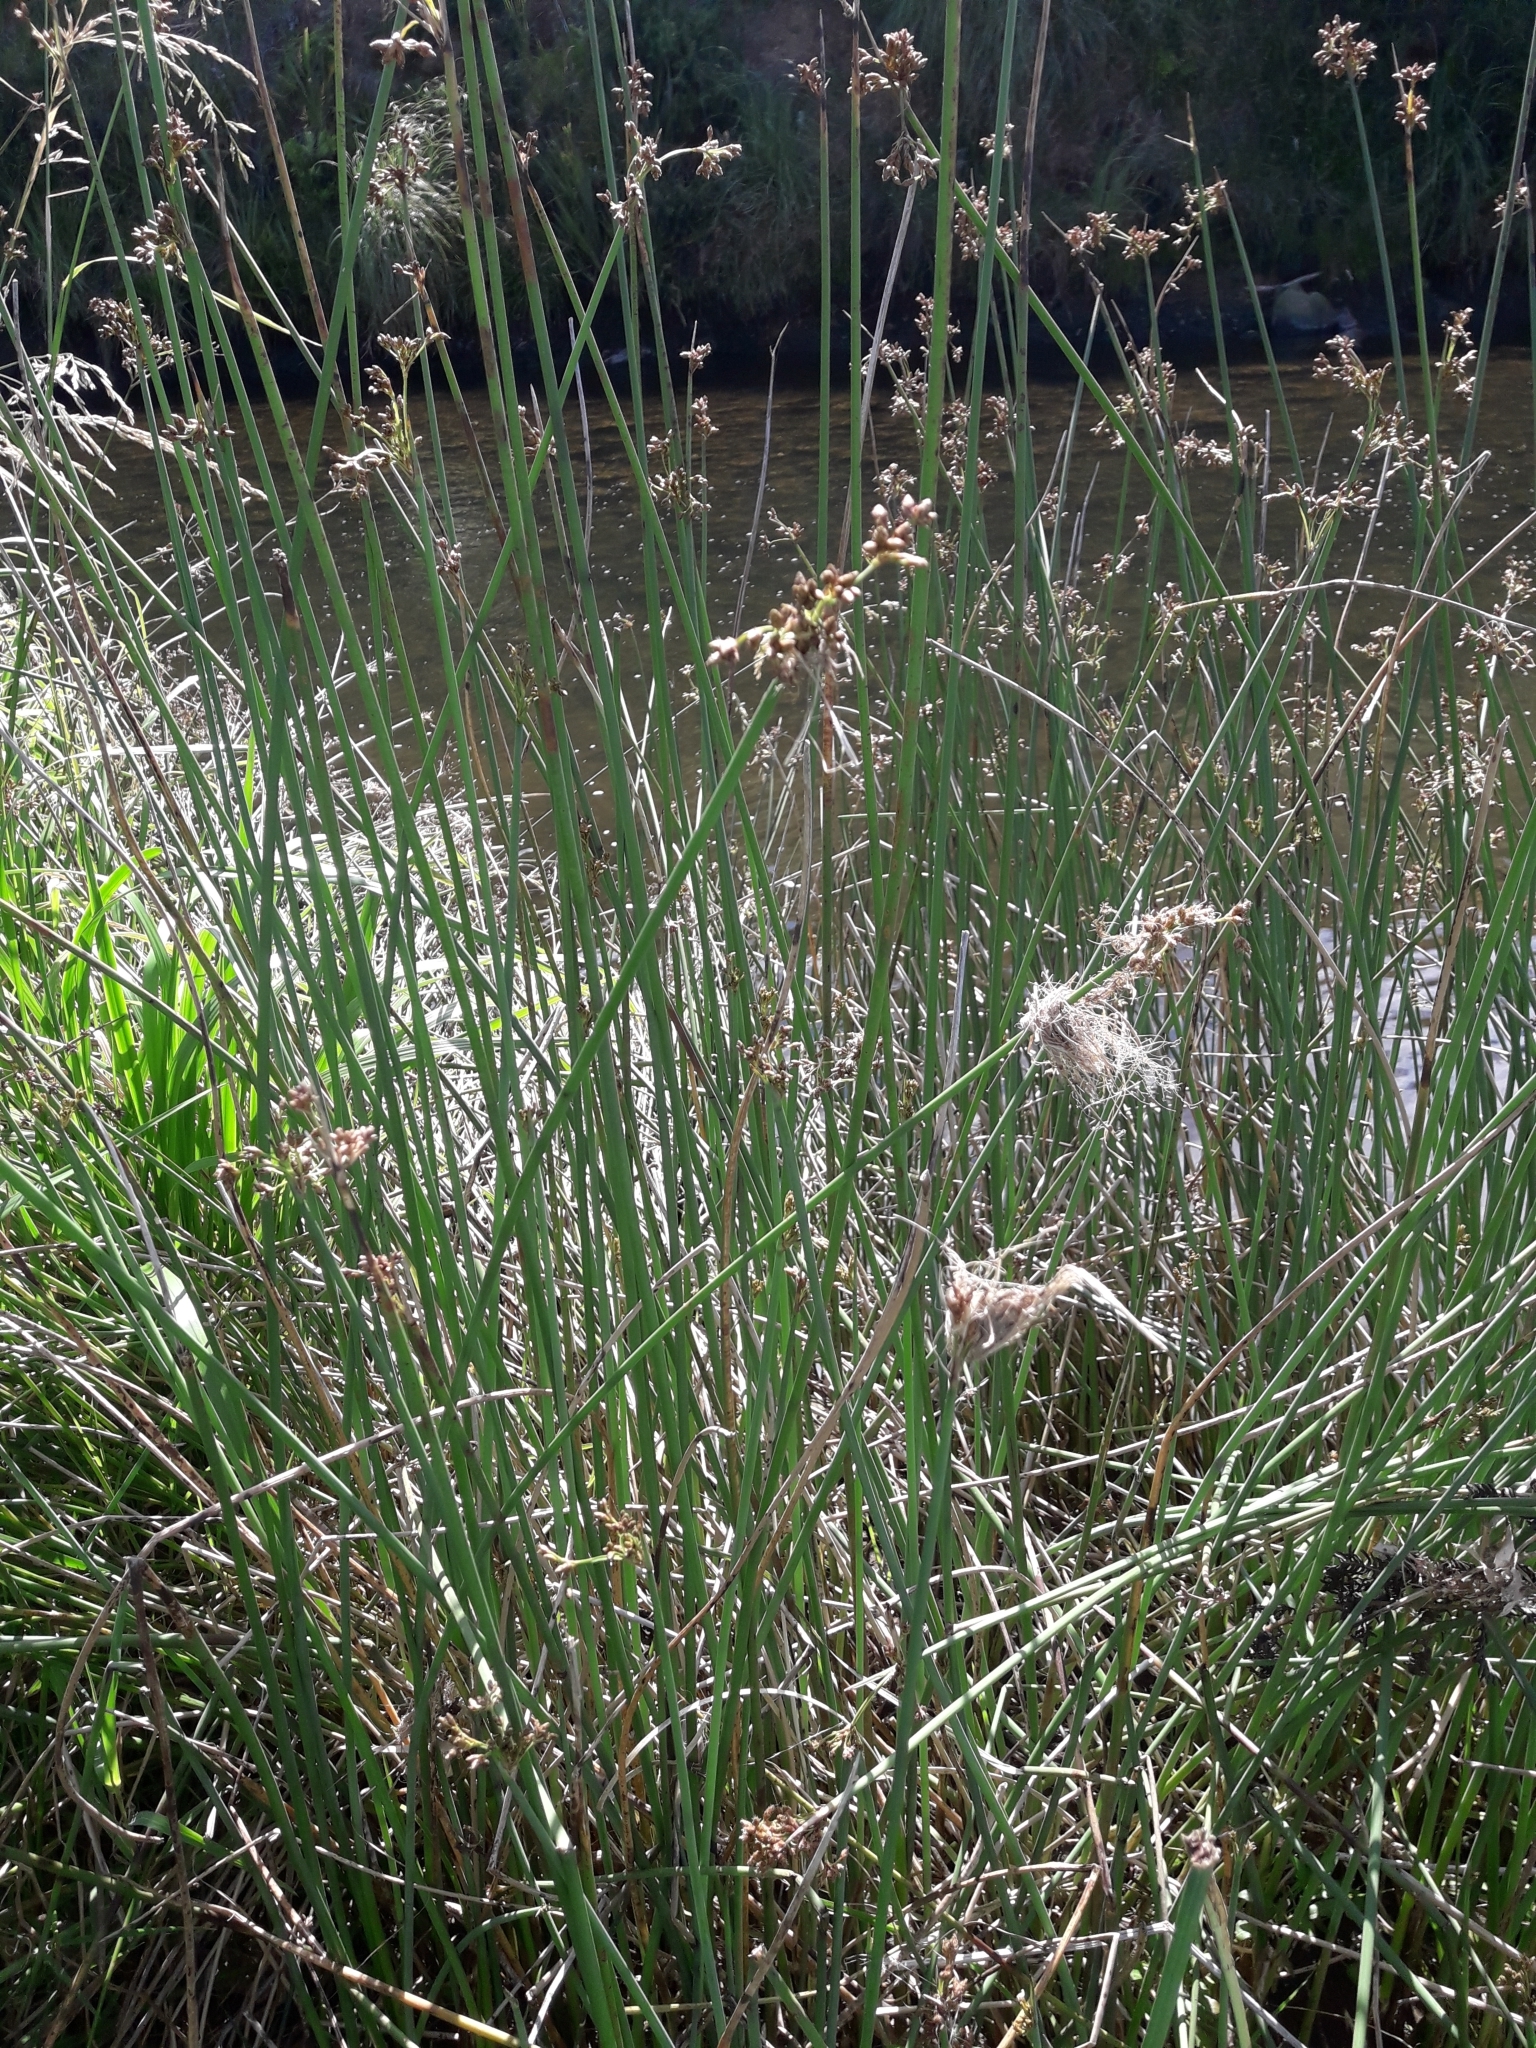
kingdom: Plantae
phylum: Tracheophyta
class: Liliopsida
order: Poales
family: Cyperaceae
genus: Schoenoplectus
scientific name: Schoenoplectus tabernaemontani
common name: Grey club-rush
